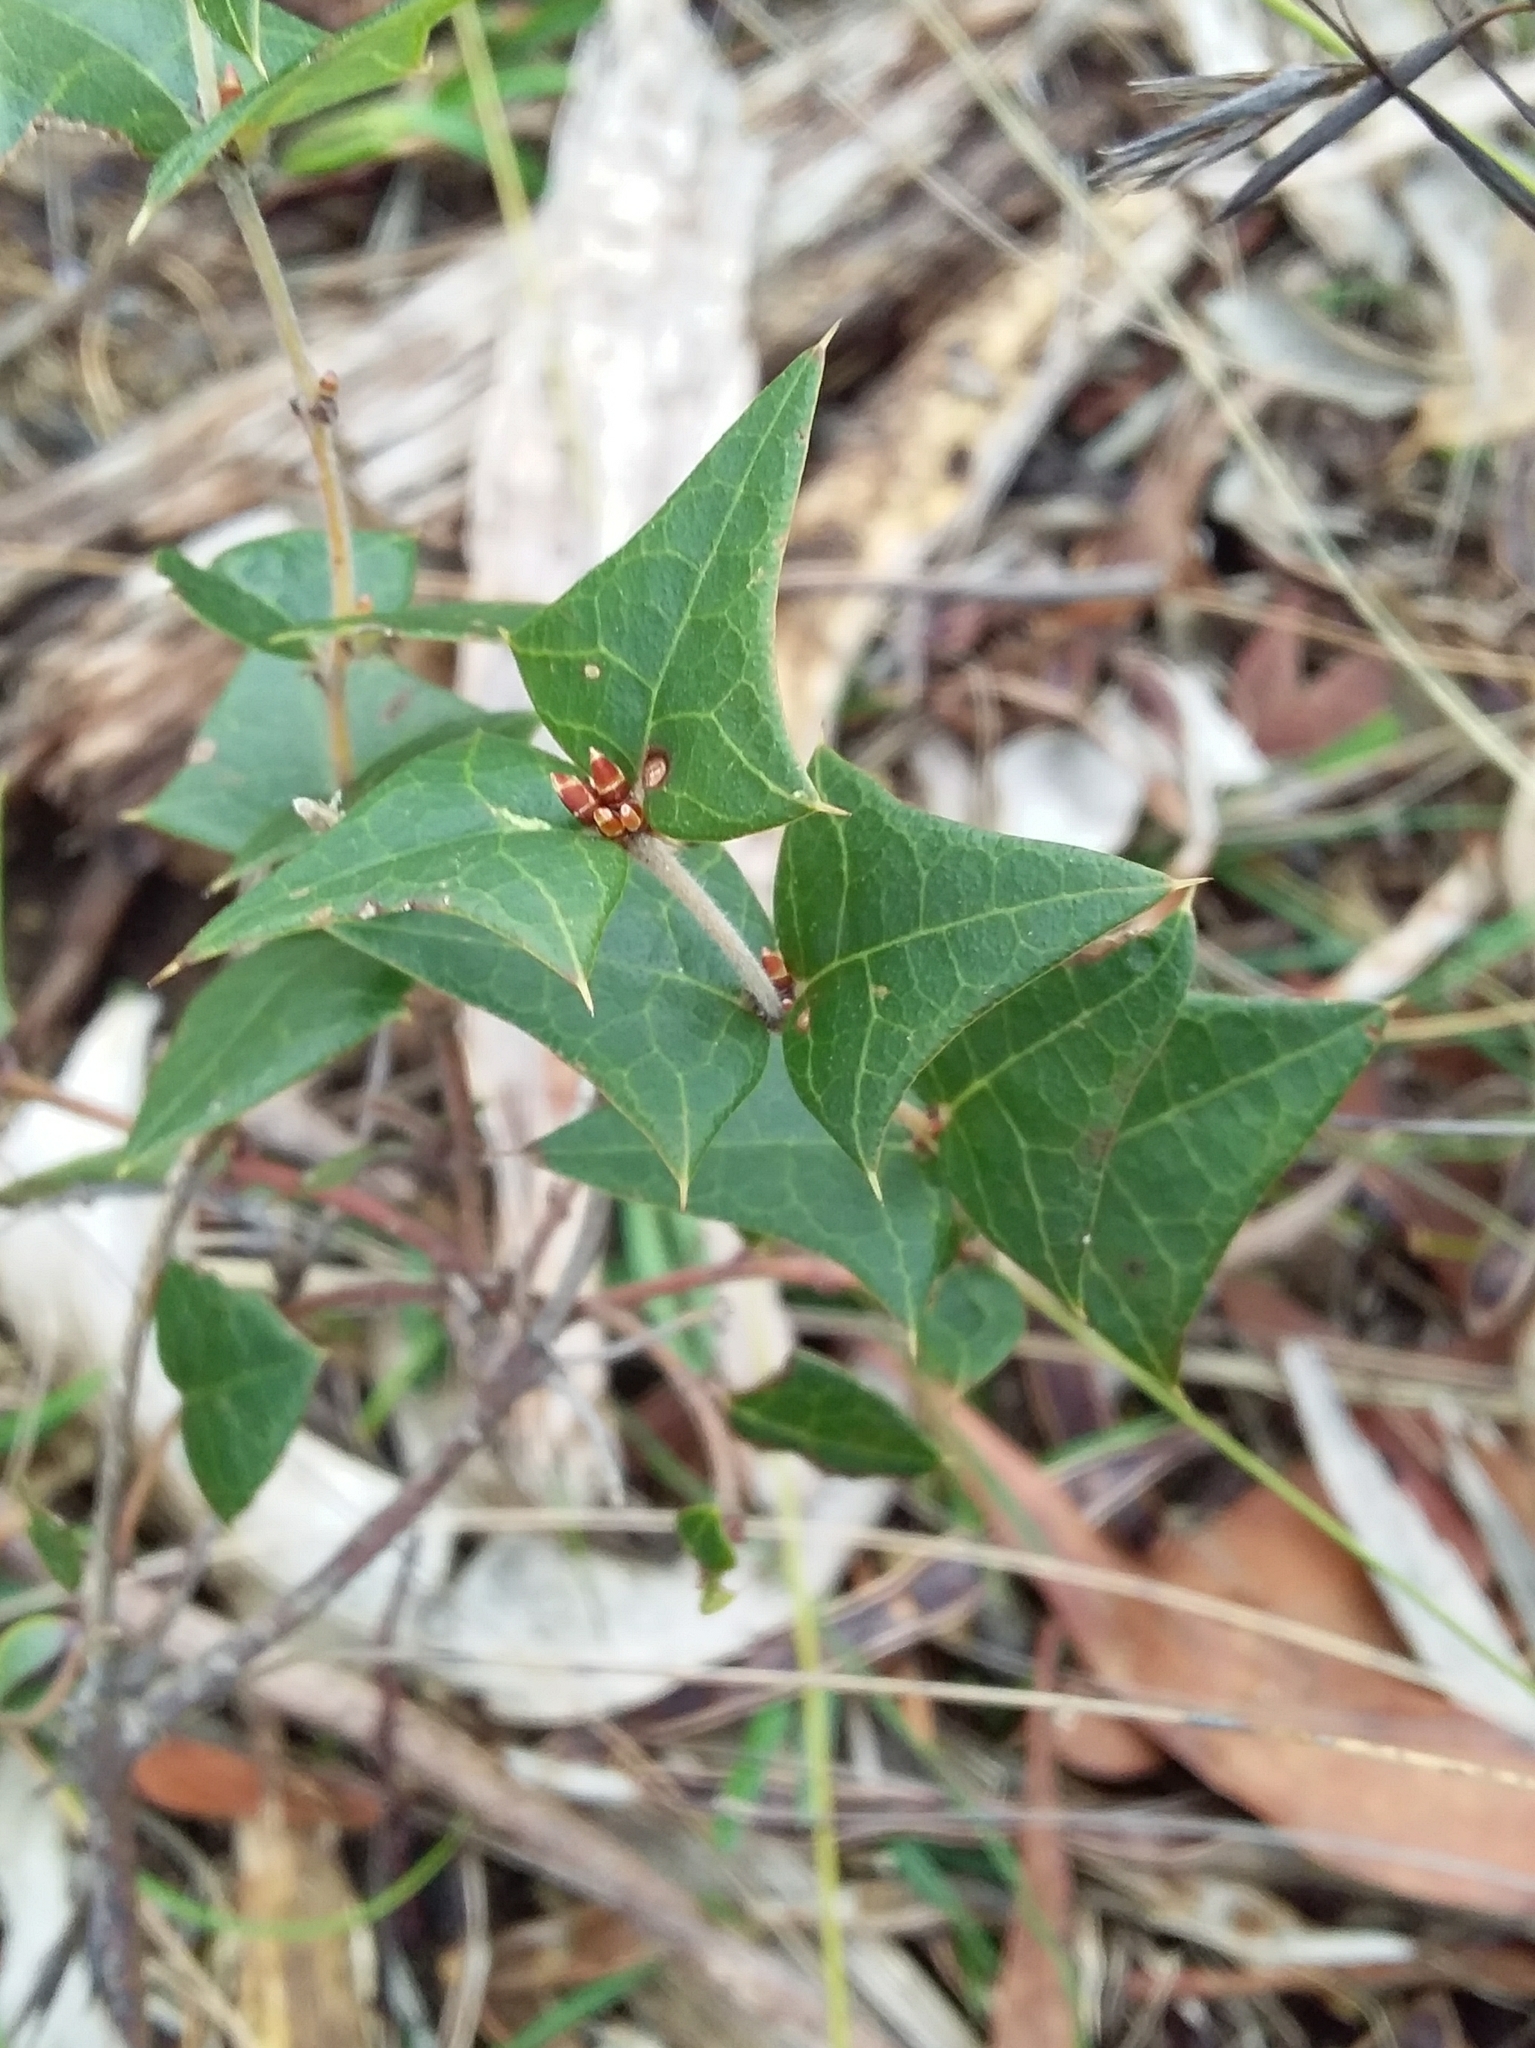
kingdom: Plantae
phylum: Tracheophyta
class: Magnoliopsida
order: Fabales
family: Fabaceae
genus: Platylobium
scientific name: Platylobium obtusangulum
